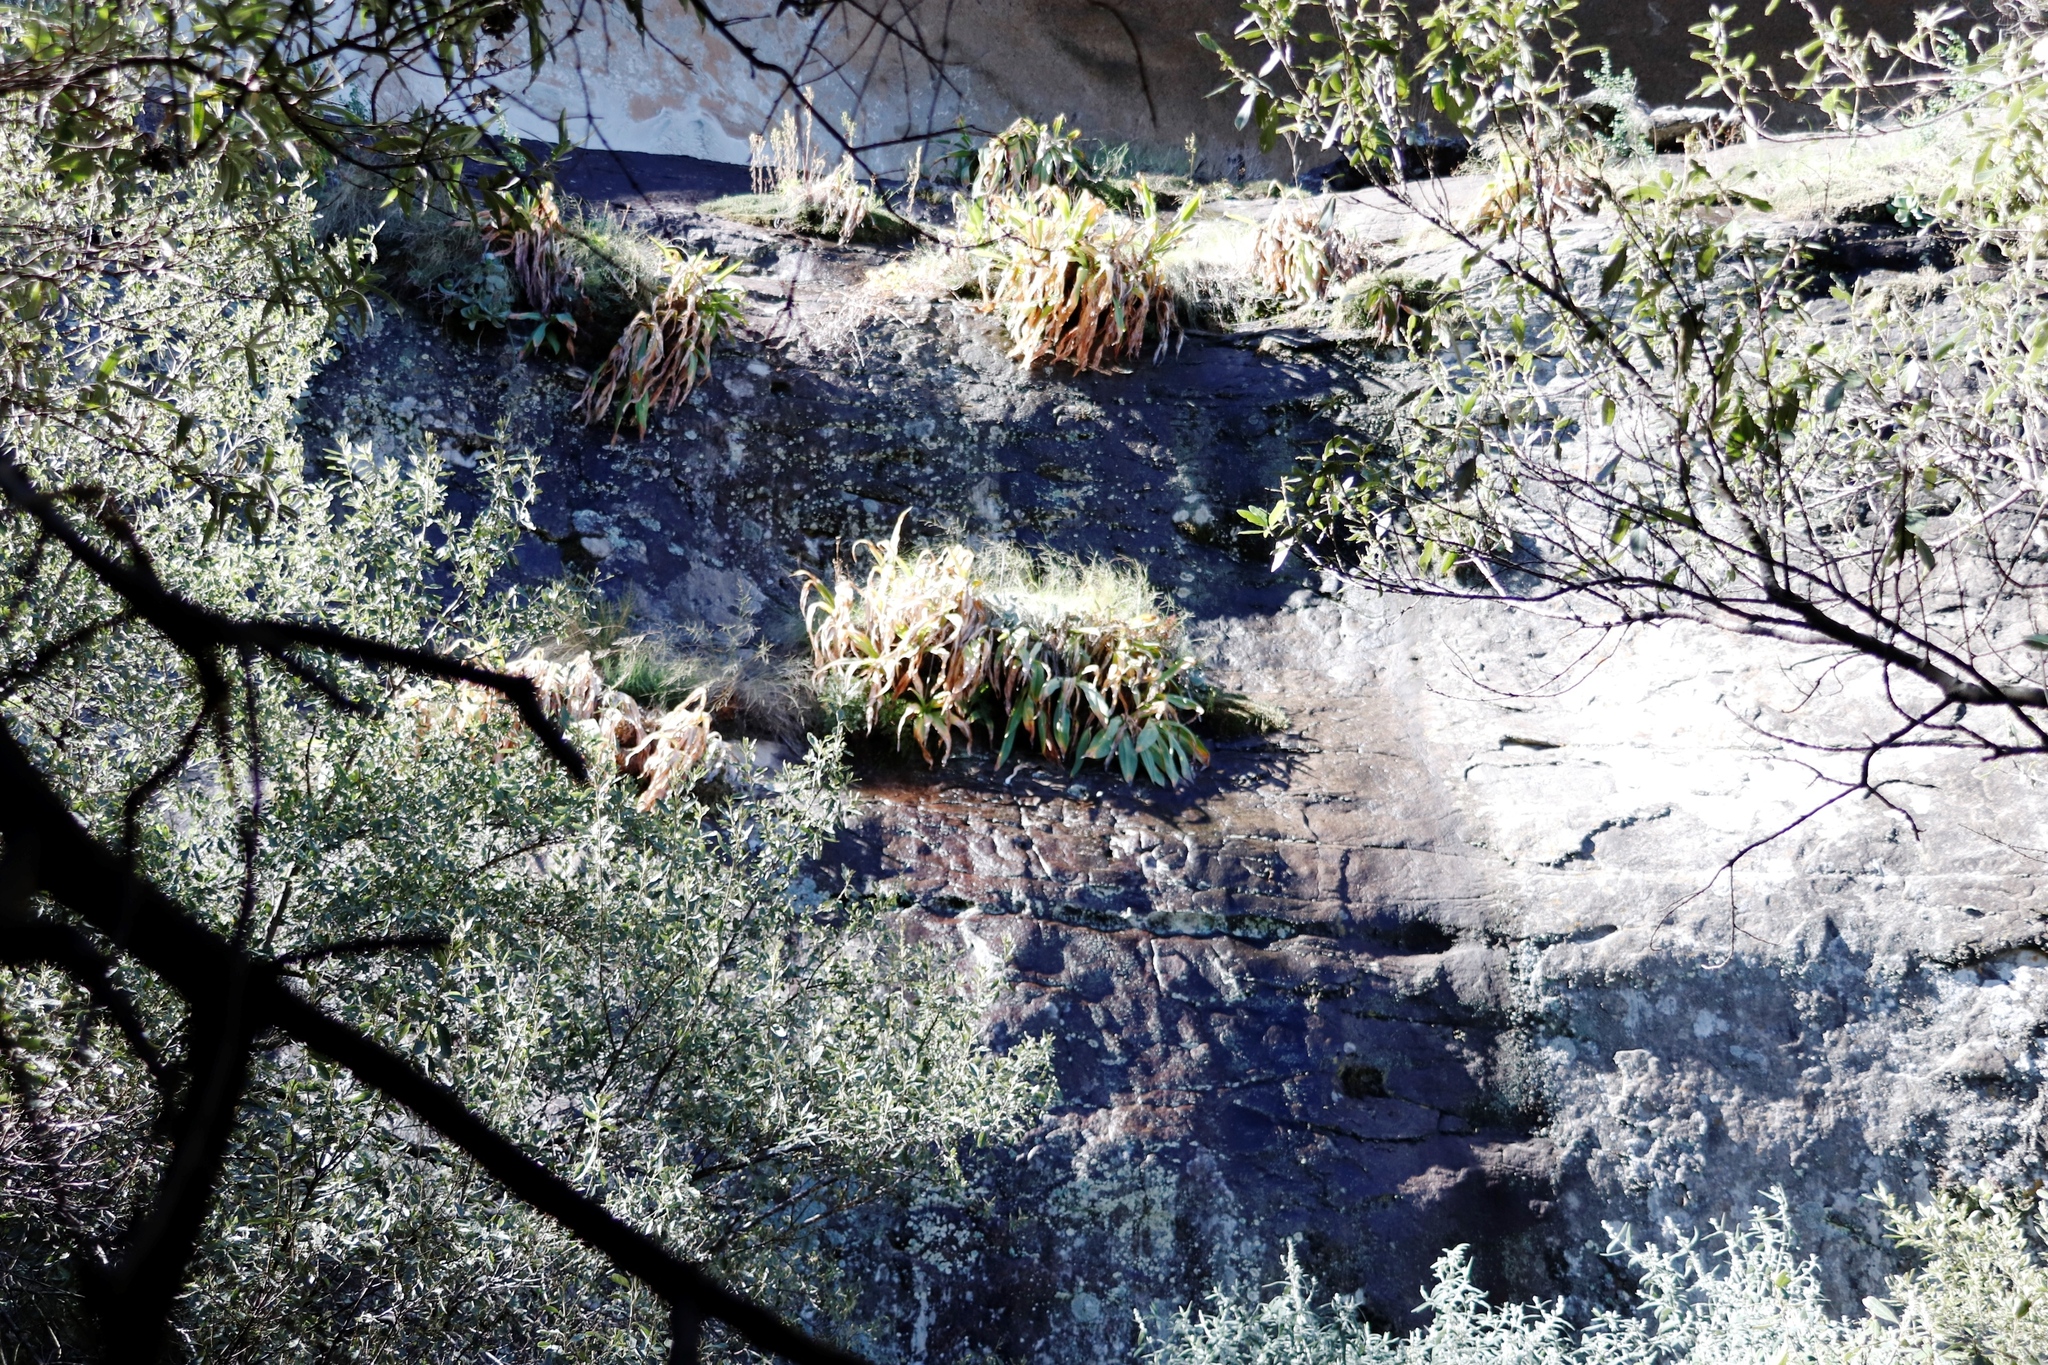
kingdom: Plantae
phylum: Tracheophyta
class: Liliopsida
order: Asparagales
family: Asparagaceae
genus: Merwilla
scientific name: Merwilla plumbea
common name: Blue-squill
